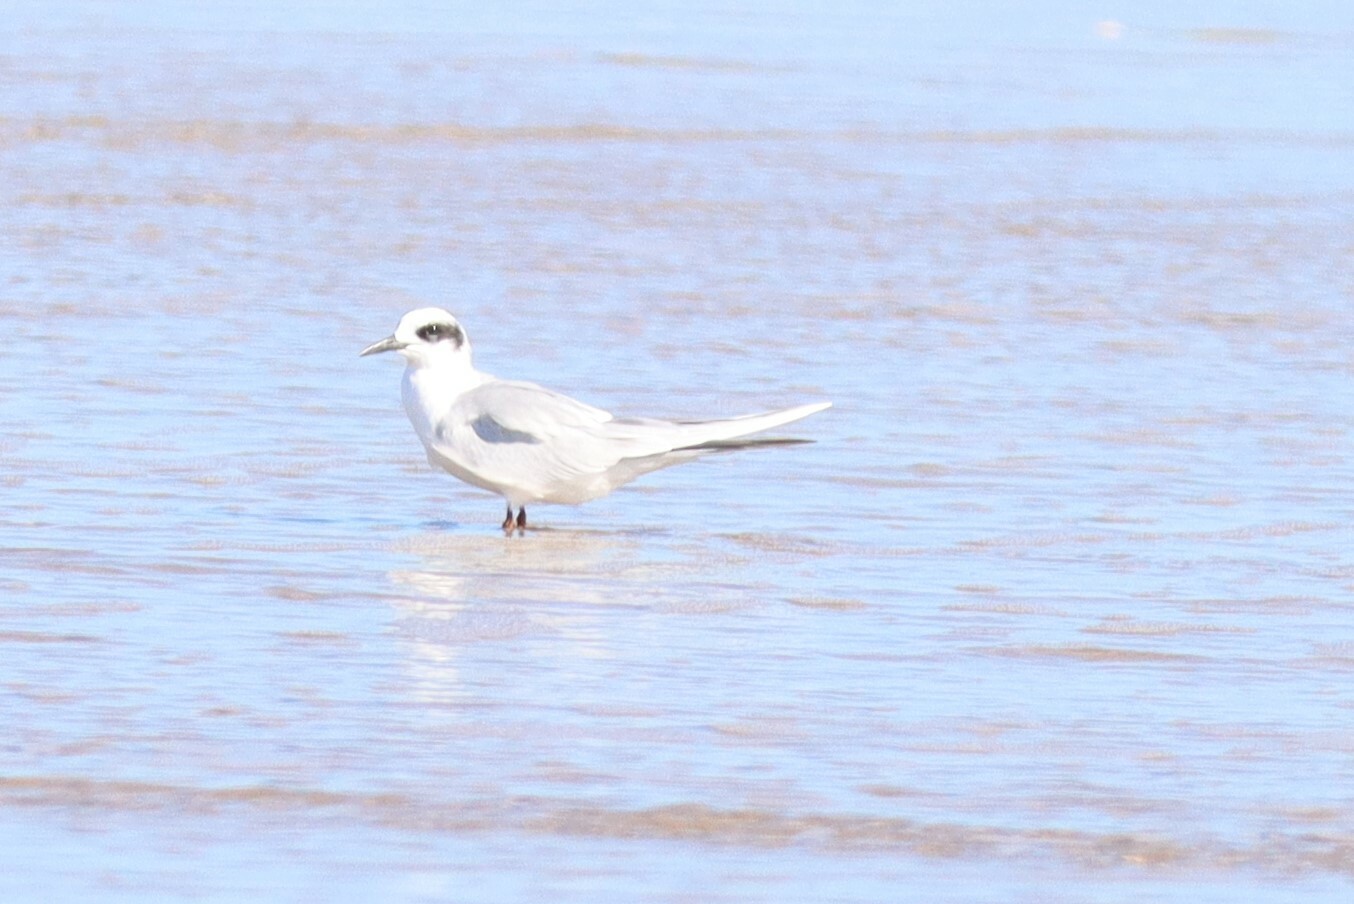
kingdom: Animalia
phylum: Chordata
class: Aves
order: Charadriiformes
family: Laridae
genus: Sterna
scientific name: Sterna forsteri
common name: Forster's tern
